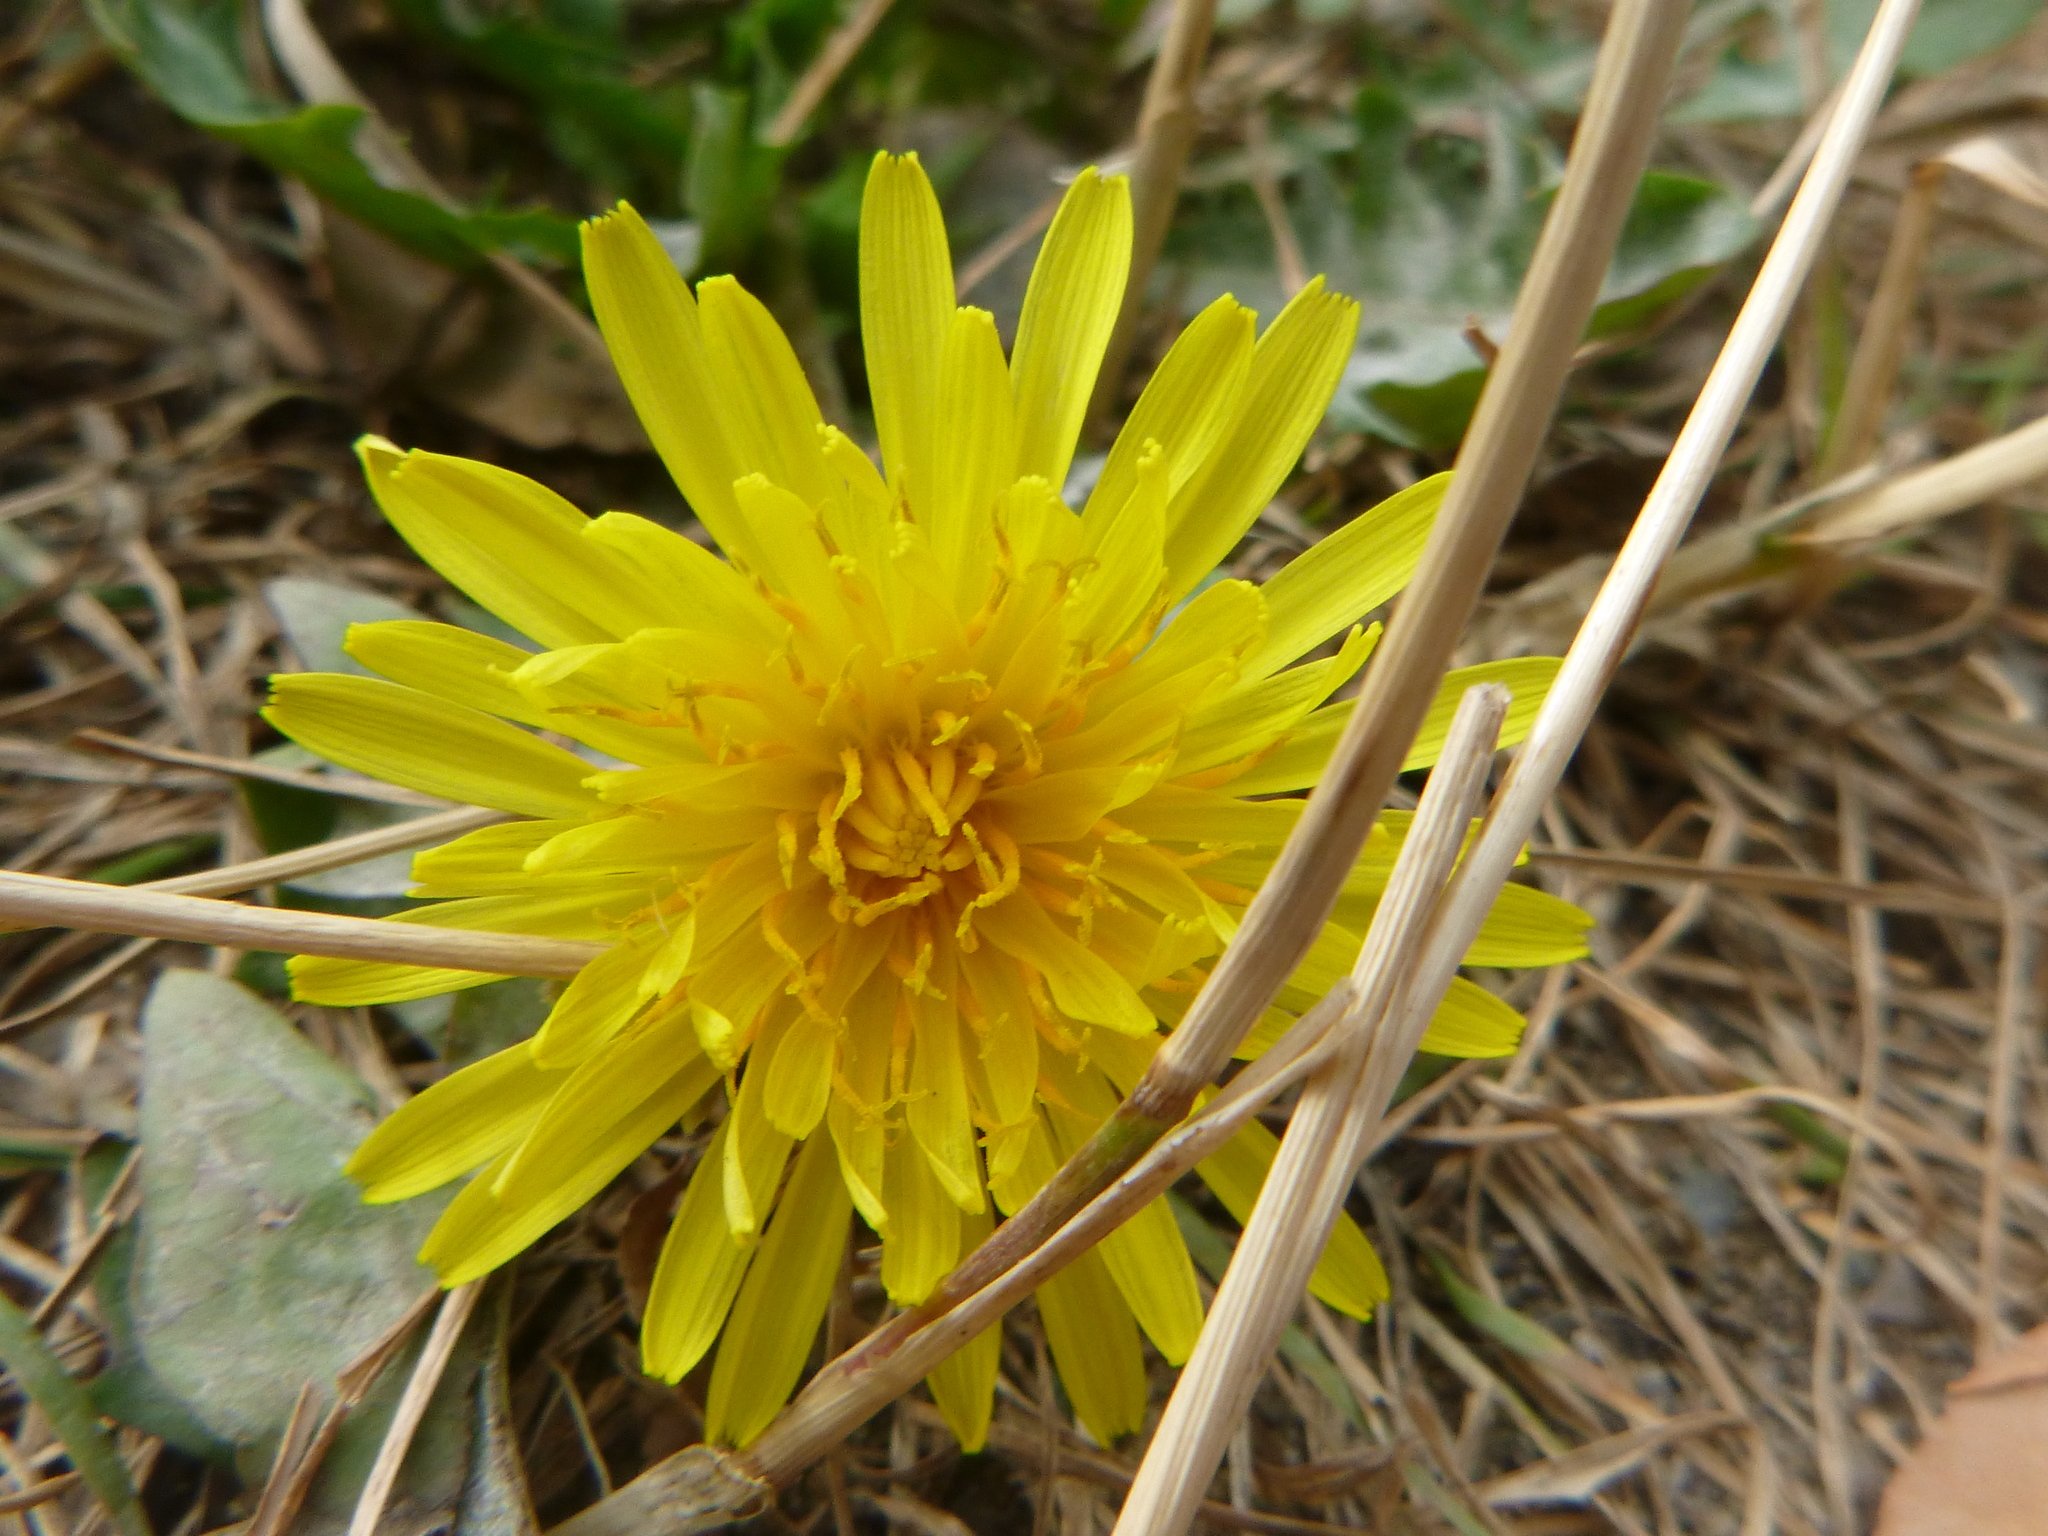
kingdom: Plantae
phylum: Tracheophyta
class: Magnoliopsida
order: Asterales
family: Asteraceae
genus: Taraxacum
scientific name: Taraxacum officinale
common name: Common dandelion
